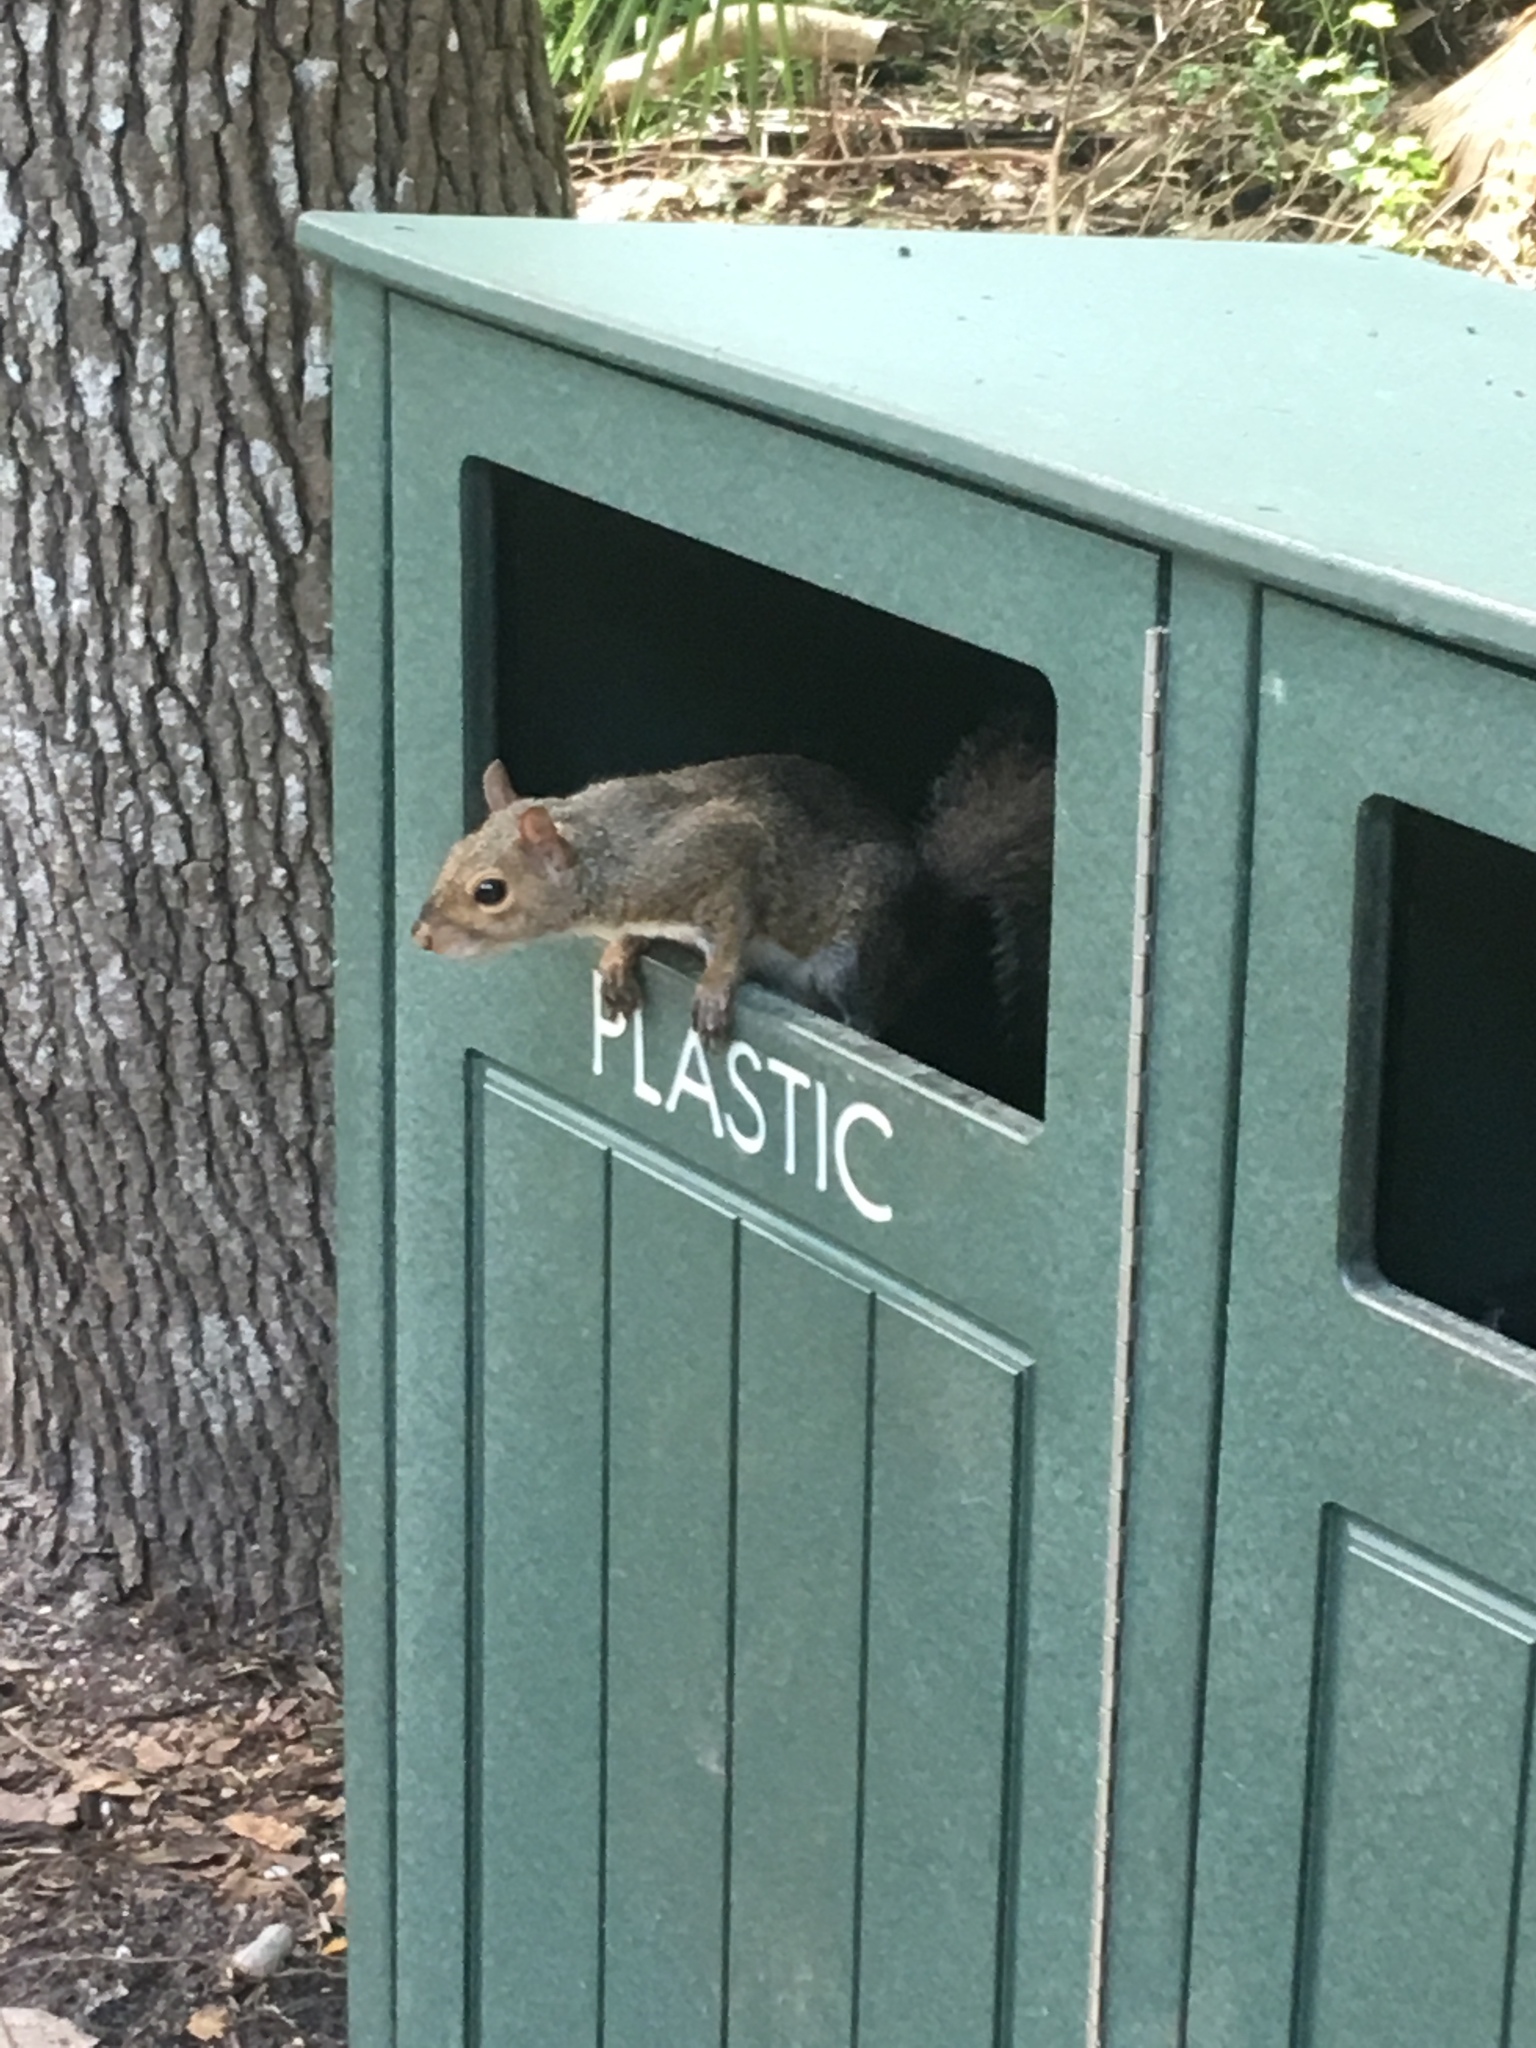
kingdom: Animalia
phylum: Chordata
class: Mammalia
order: Rodentia
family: Sciuridae
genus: Sciurus
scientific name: Sciurus carolinensis
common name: Eastern gray squirrel
